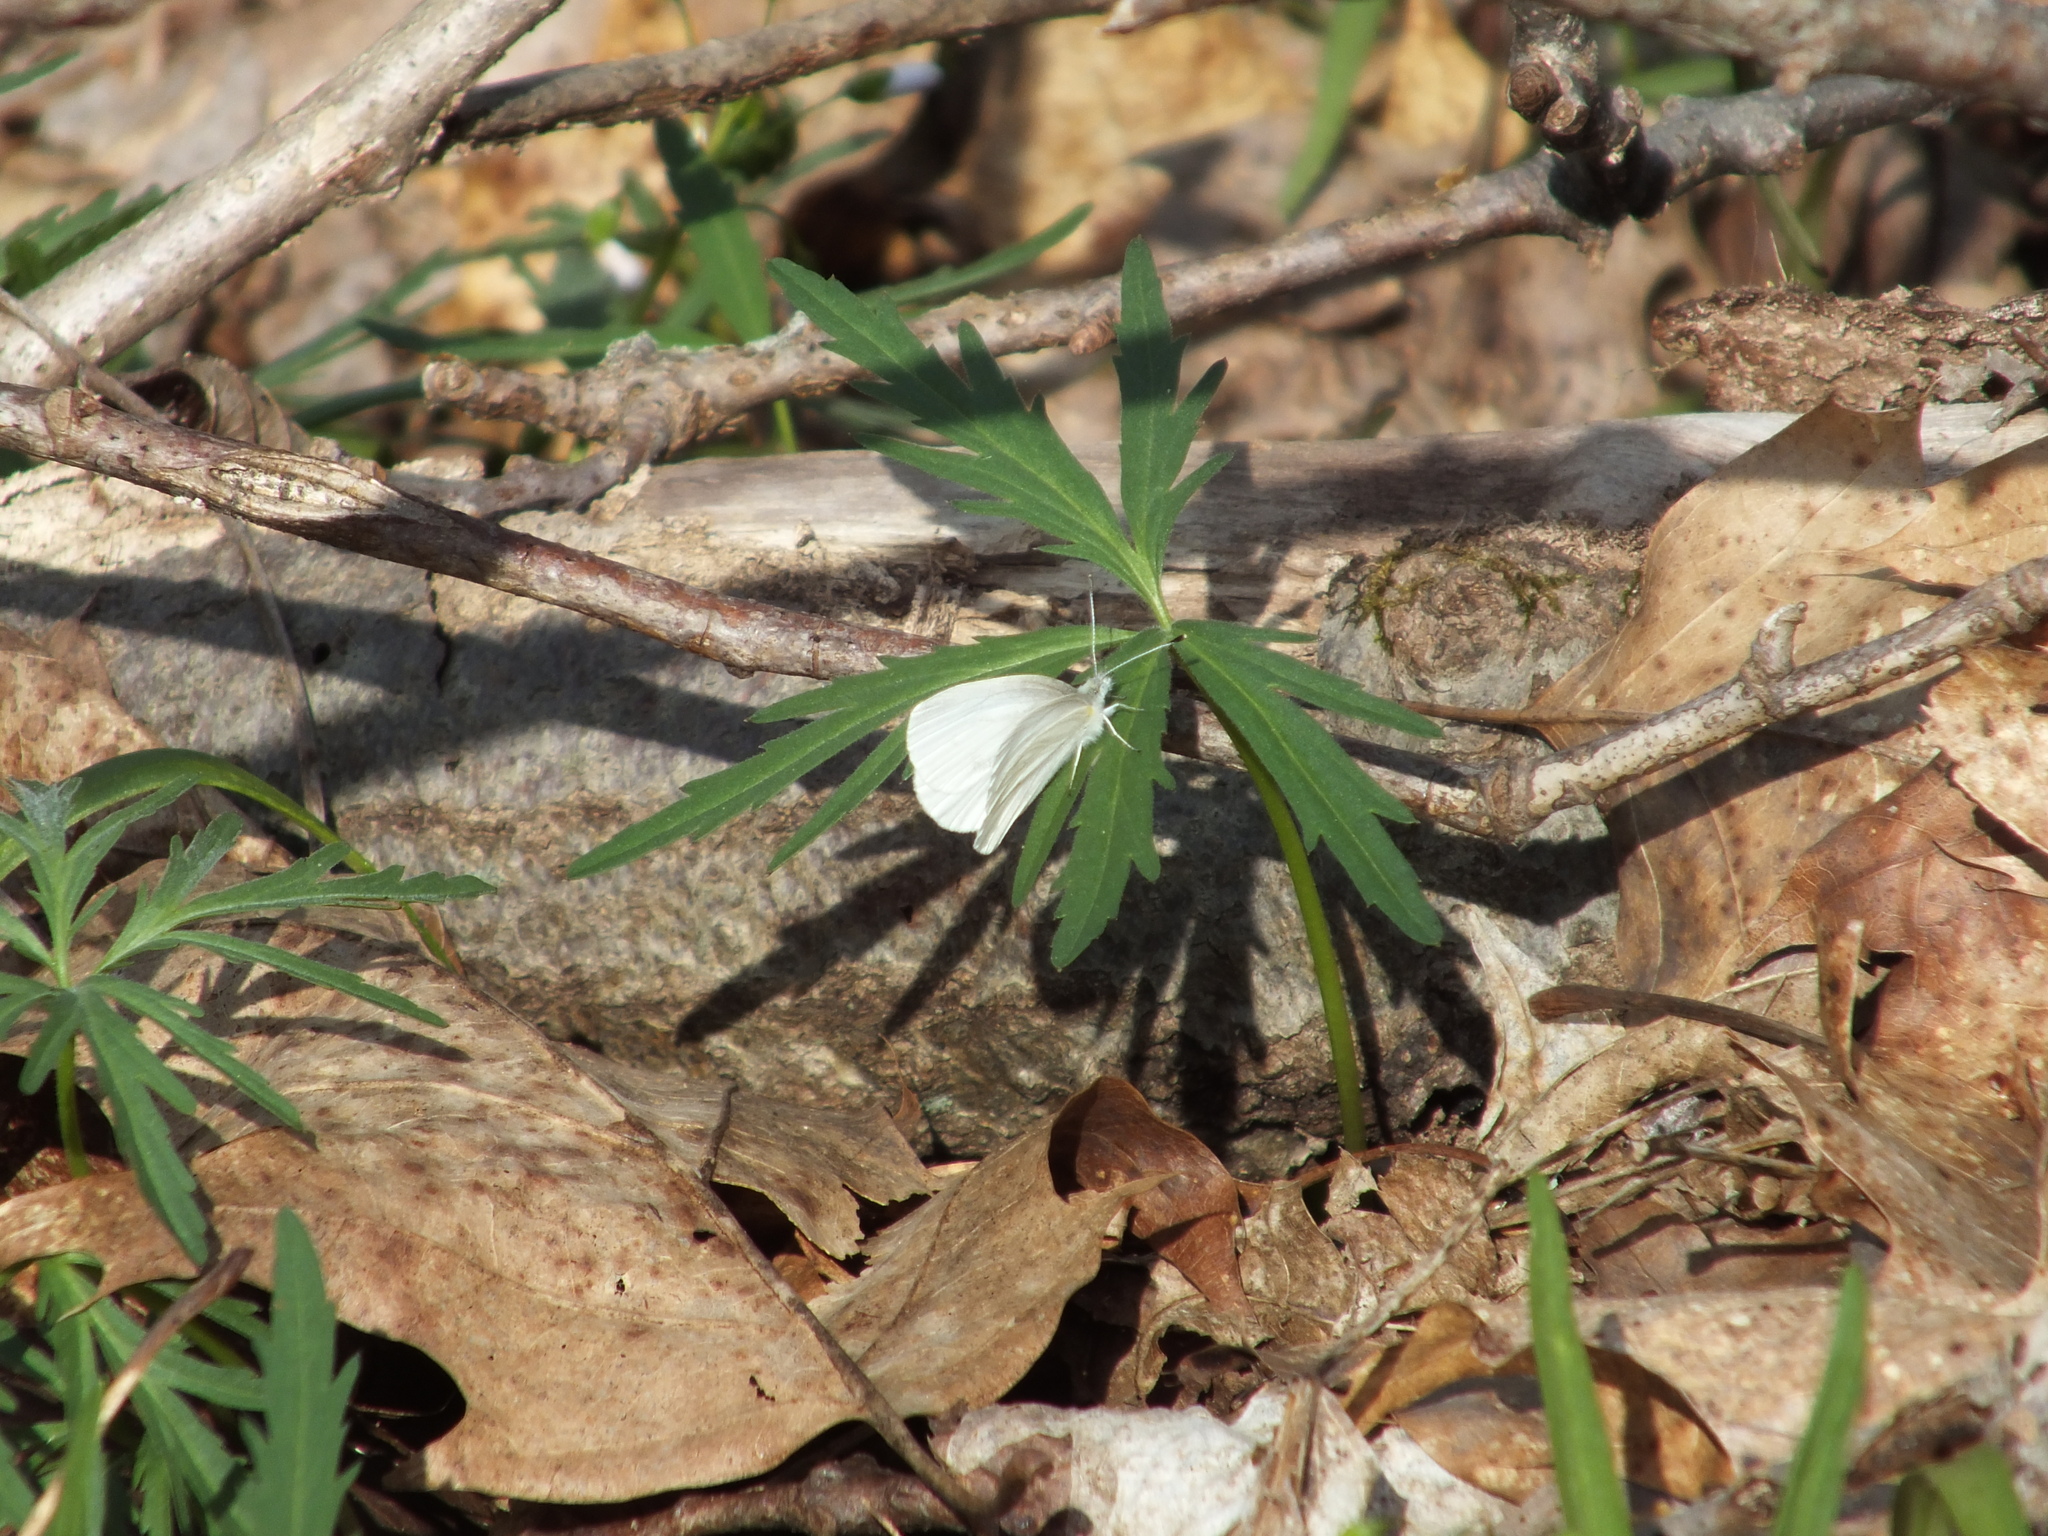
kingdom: Animalia
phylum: Arthropoda
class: Insecta
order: Lepidoptera
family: Pieridae
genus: Pieris
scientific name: Pieris virginiensis
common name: West virginia white
